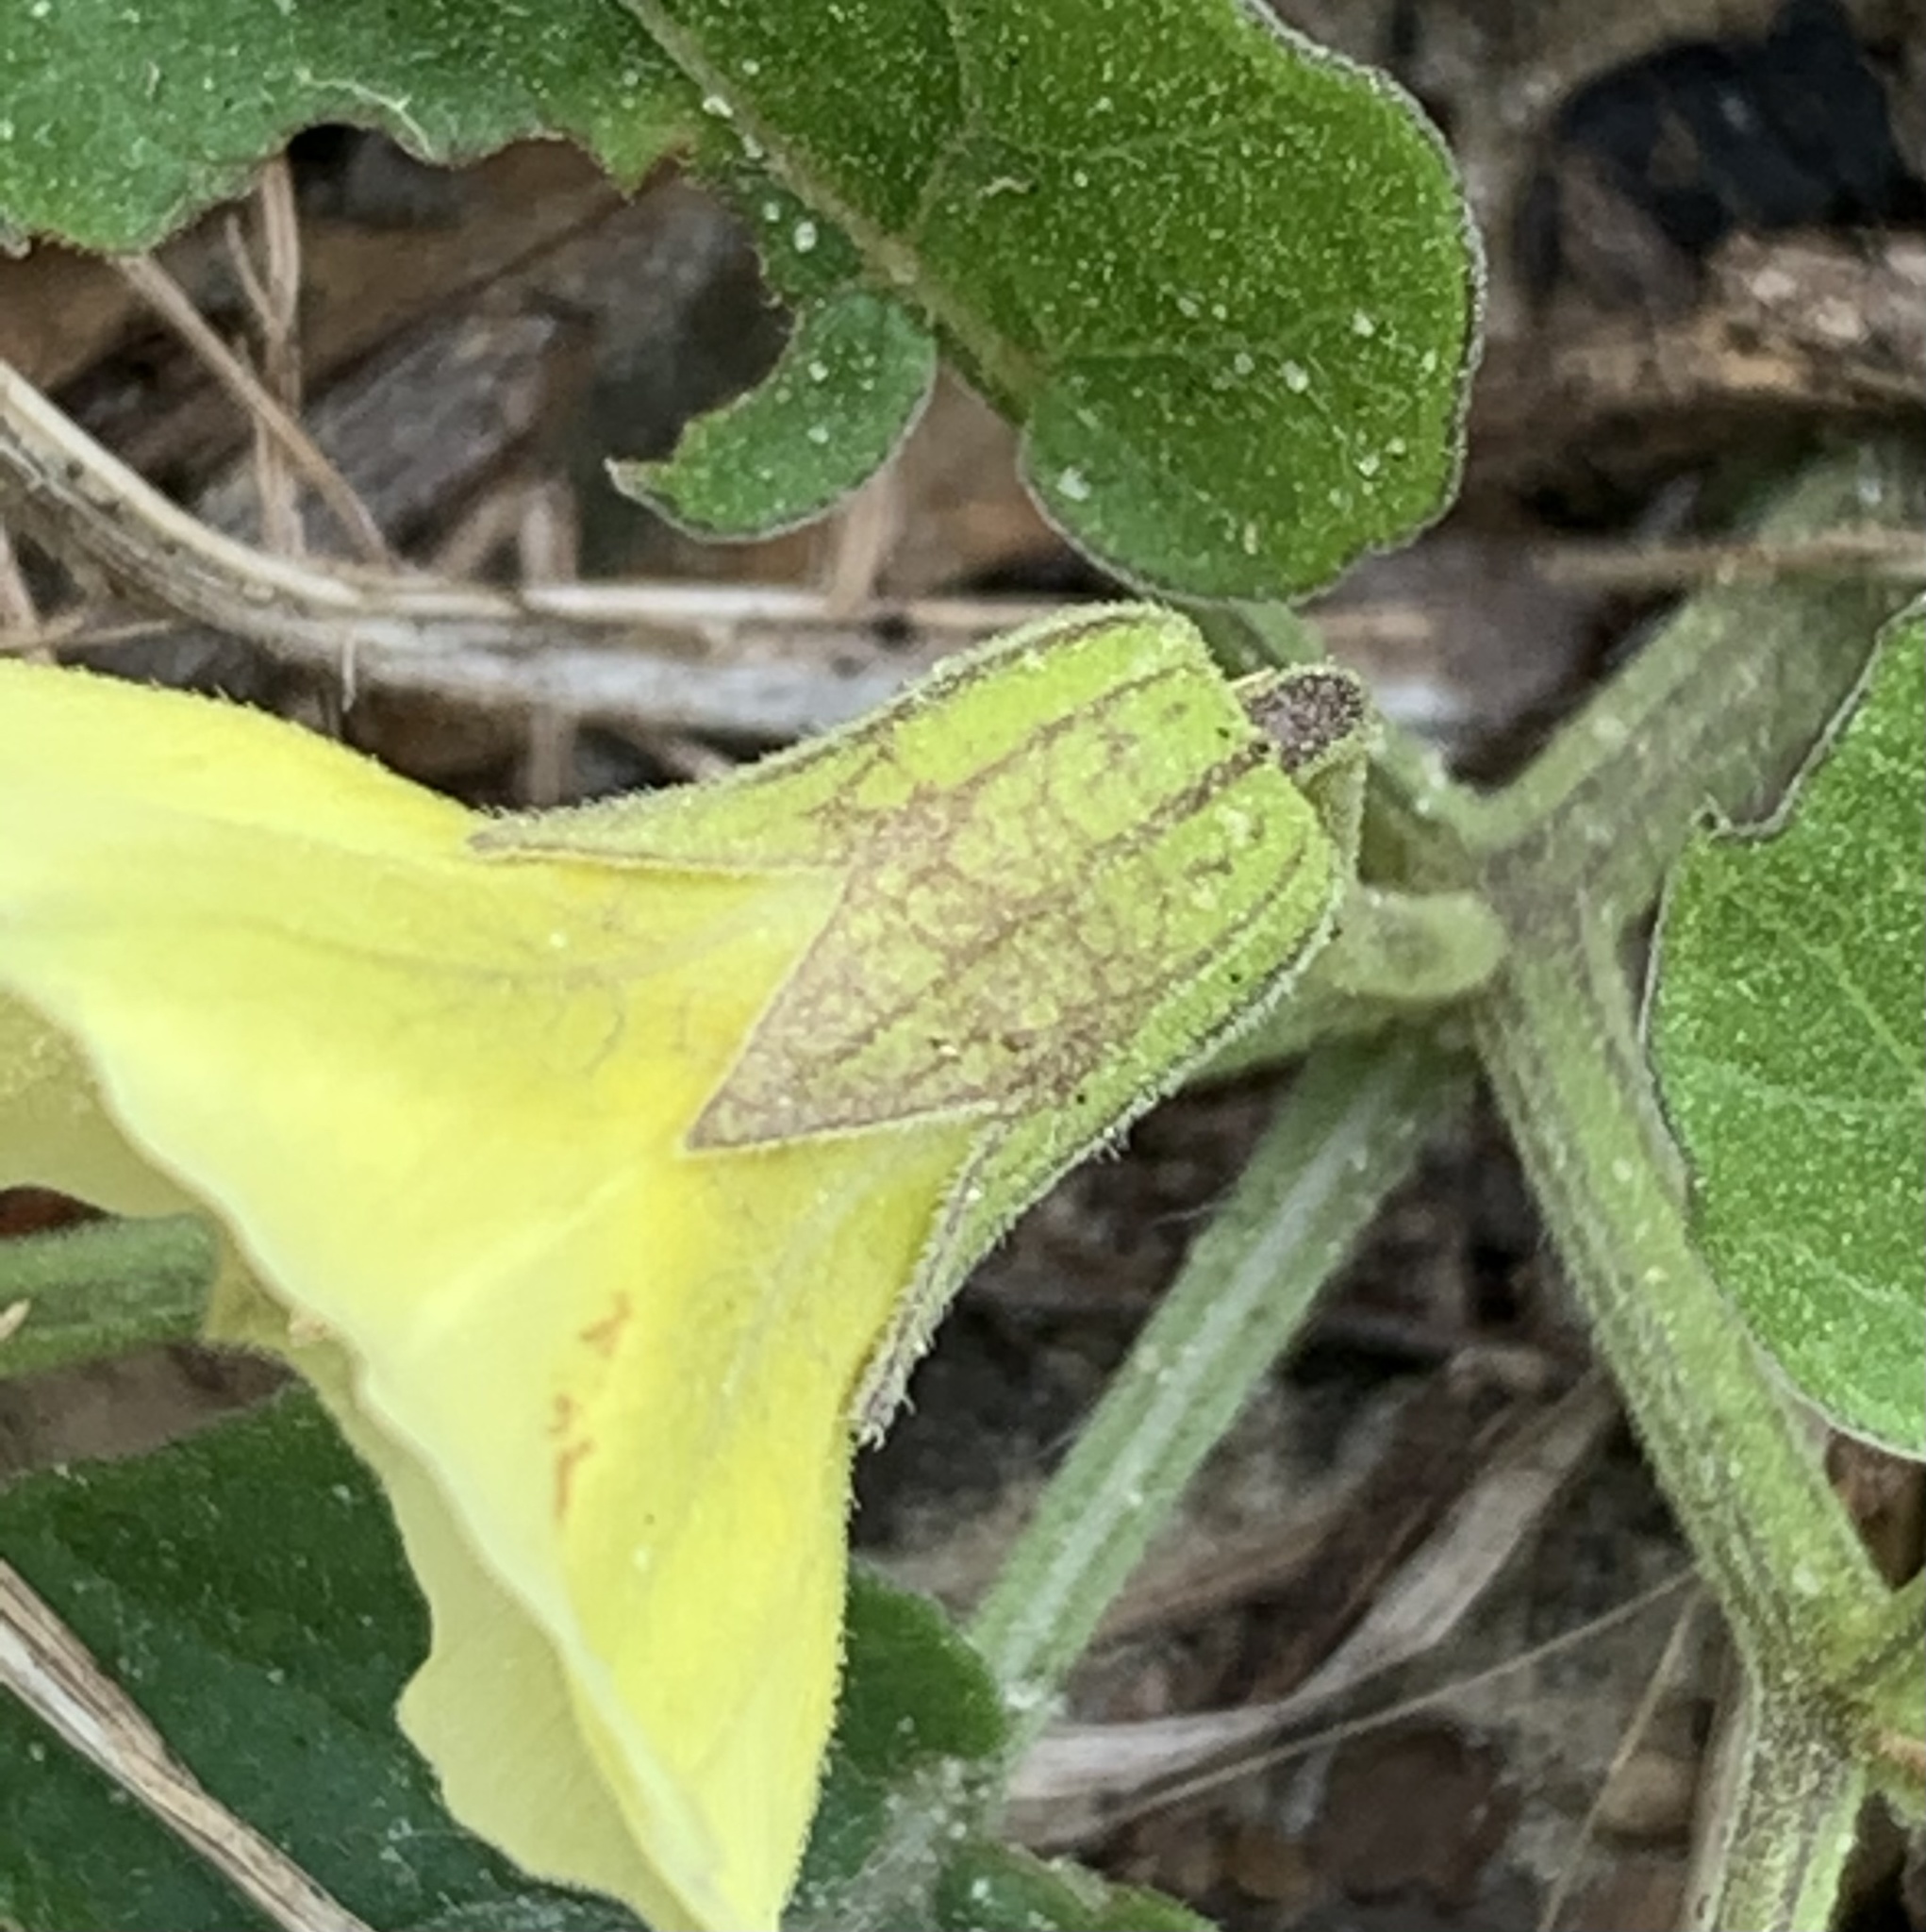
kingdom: Plantae
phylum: Tracheophyta
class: Magnoliopsida
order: Solanales
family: Solanaceae
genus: Physalis
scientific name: Physalis arenicola
